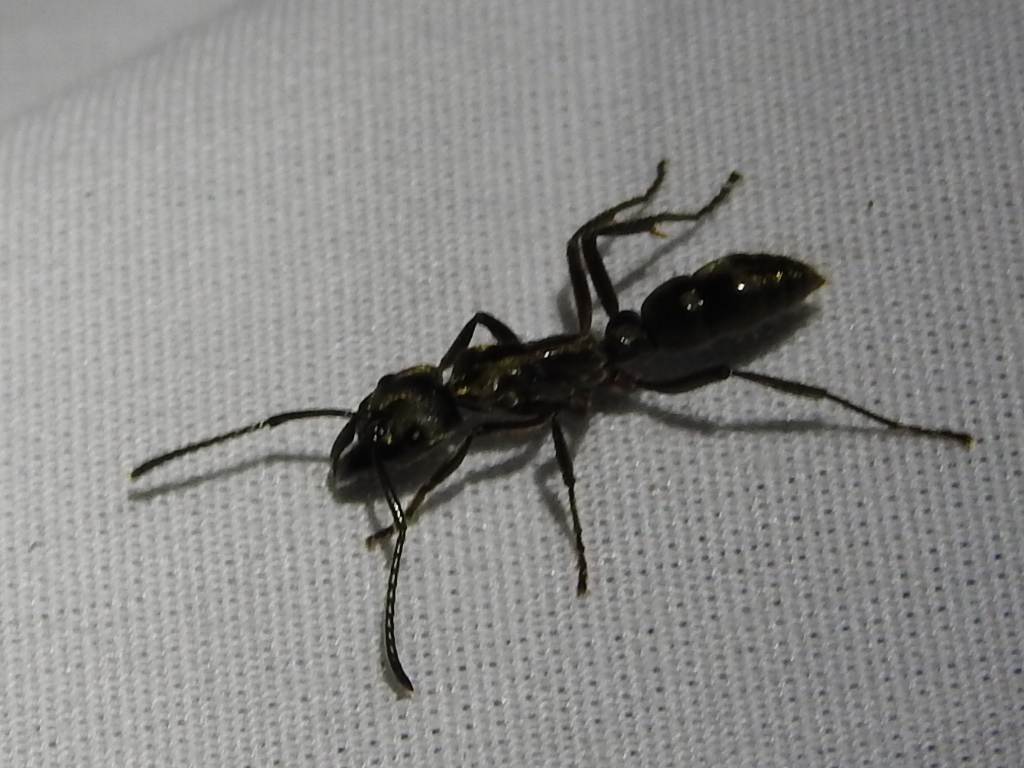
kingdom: Animalia
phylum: Arthropoda
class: Insecta
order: Hymenoptera
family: Formicidae
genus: Pachycondyla
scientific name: Pachycondyla villosa
